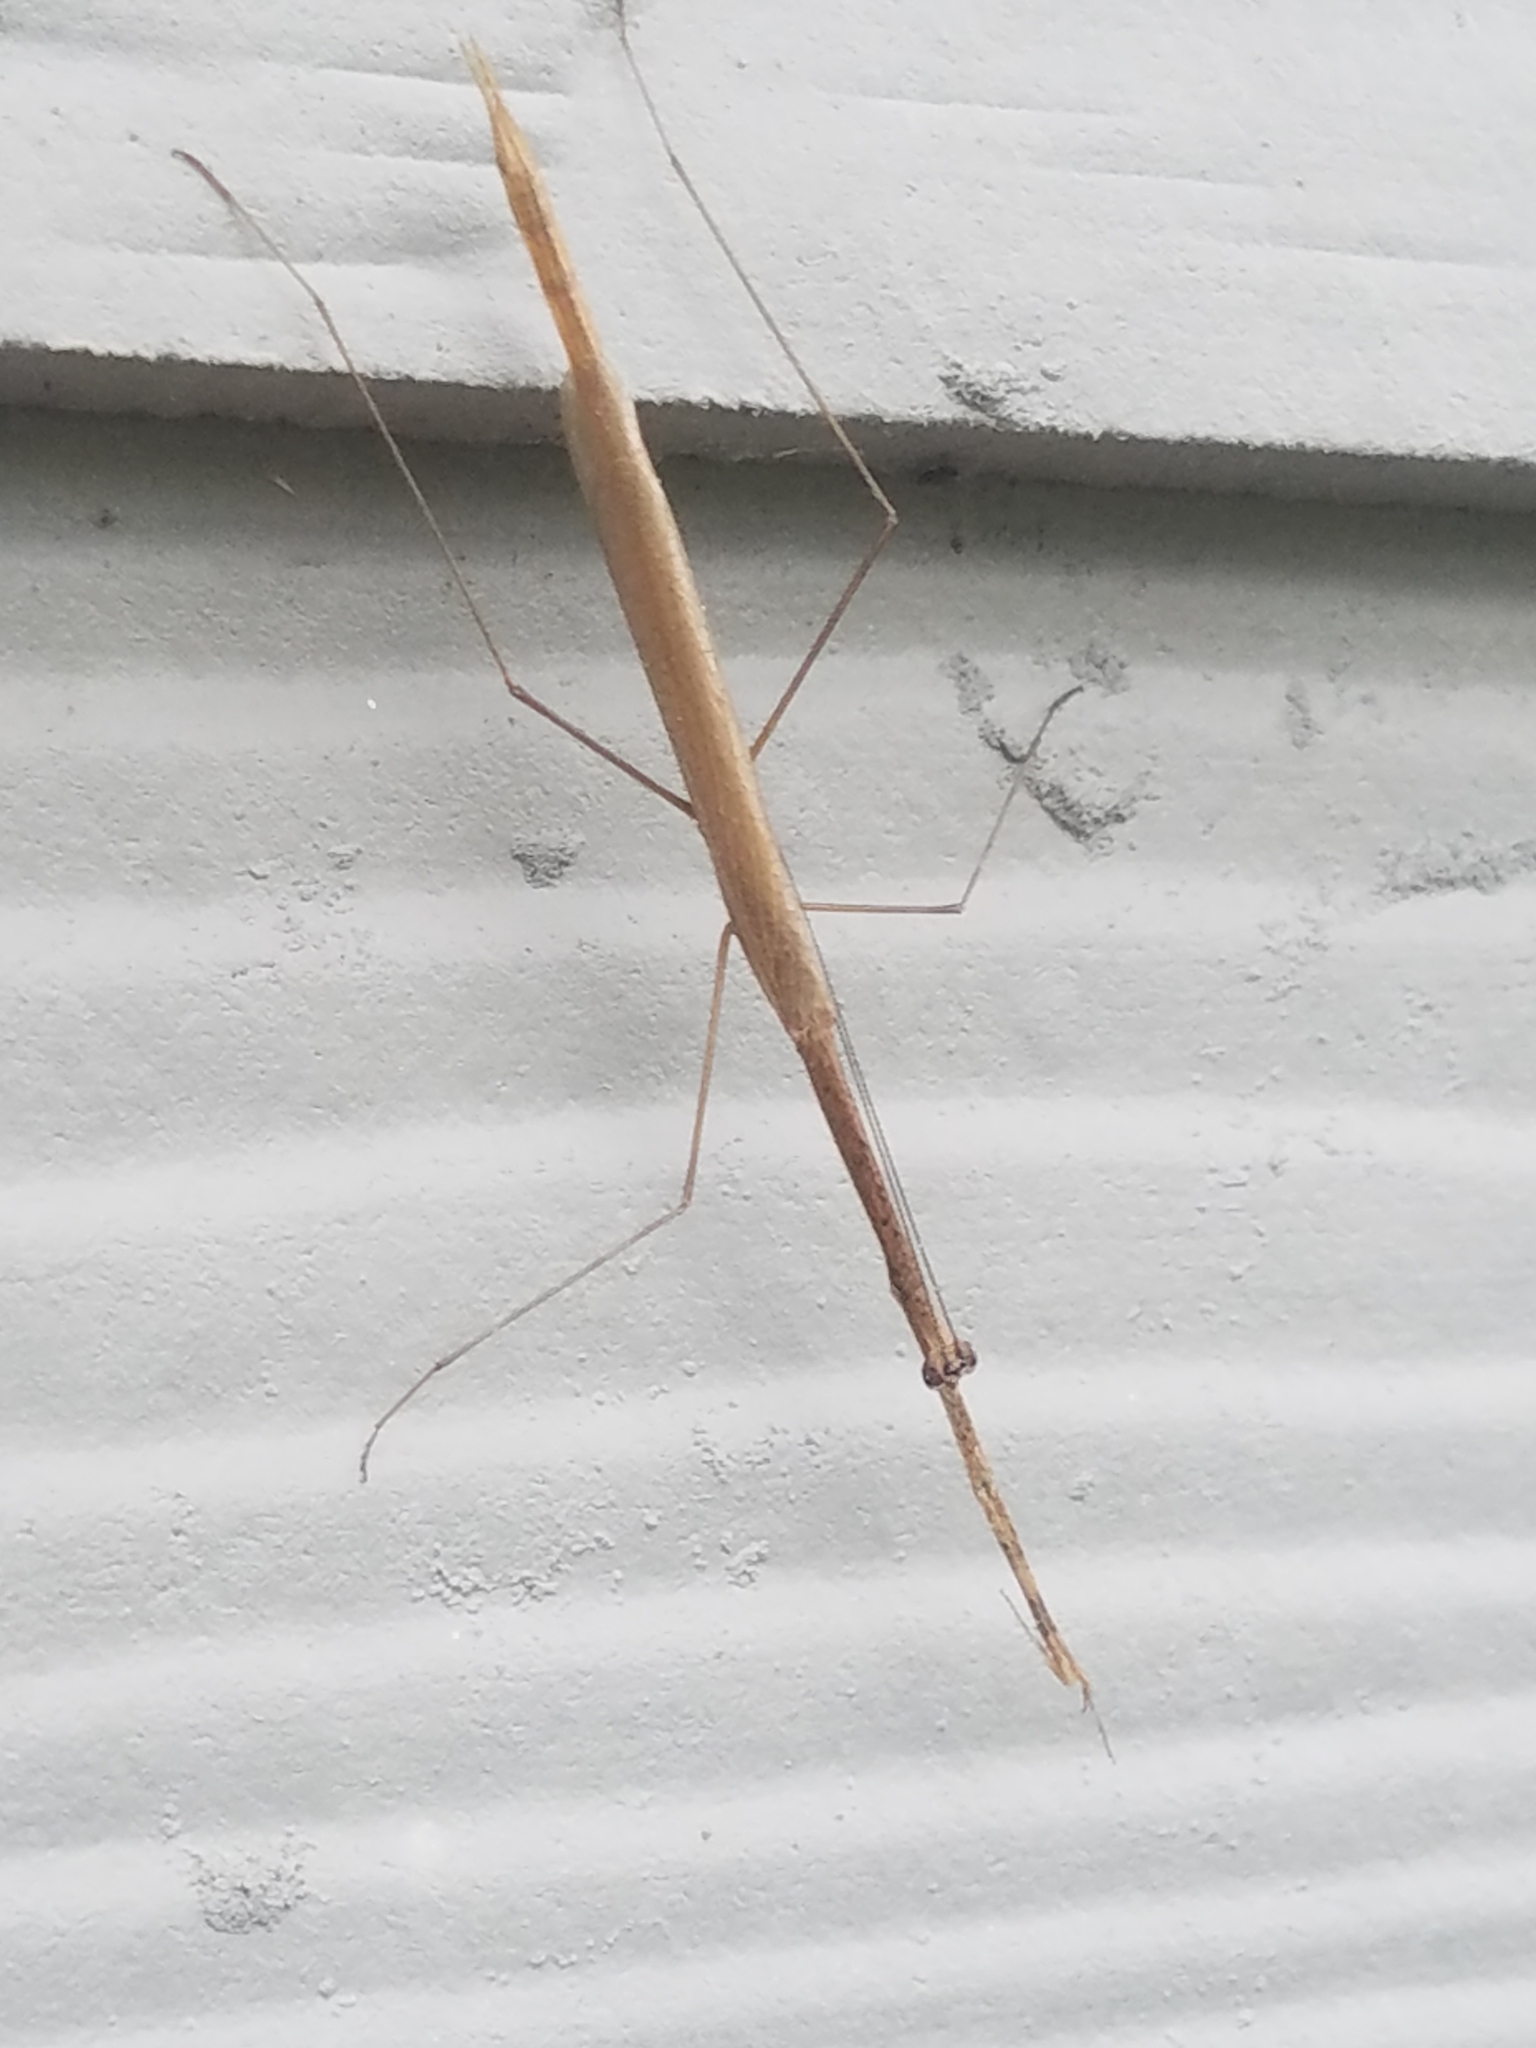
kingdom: Animalia
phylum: Arthropoda
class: Insecta
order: Mantodea
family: Thespidae
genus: Thesprotia
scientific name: Thesprotia graminis
